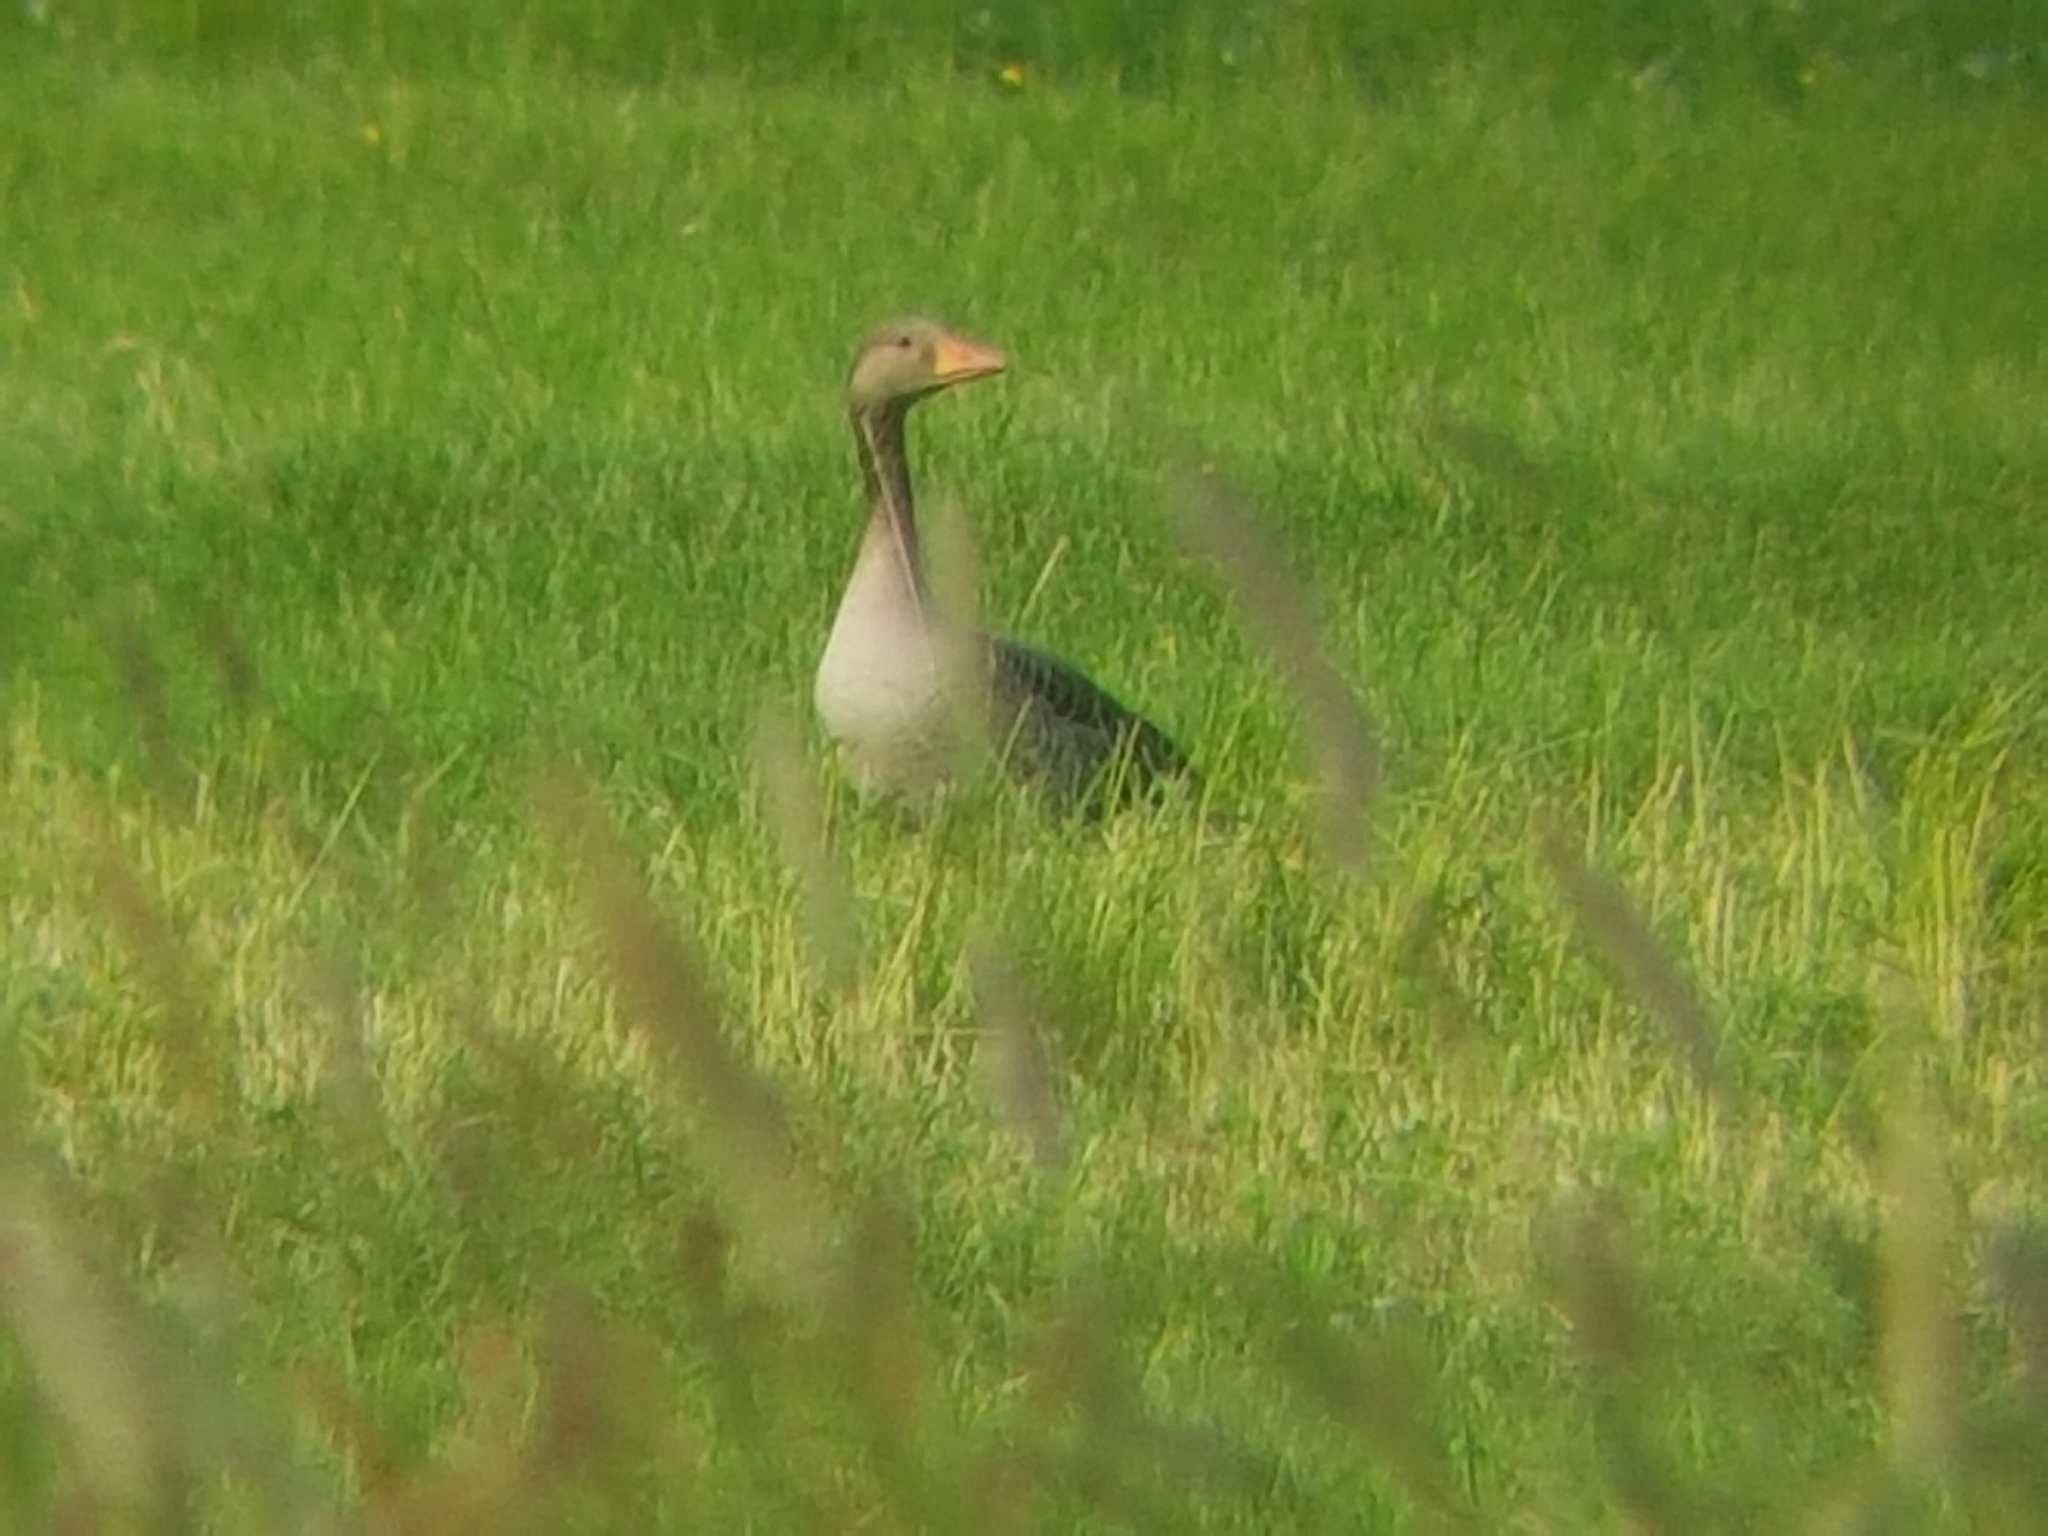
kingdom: Animalia
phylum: Chordata
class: Aves
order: Anseriformes
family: Anatidae
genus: Anser
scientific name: Anser anser
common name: Greylag goose
